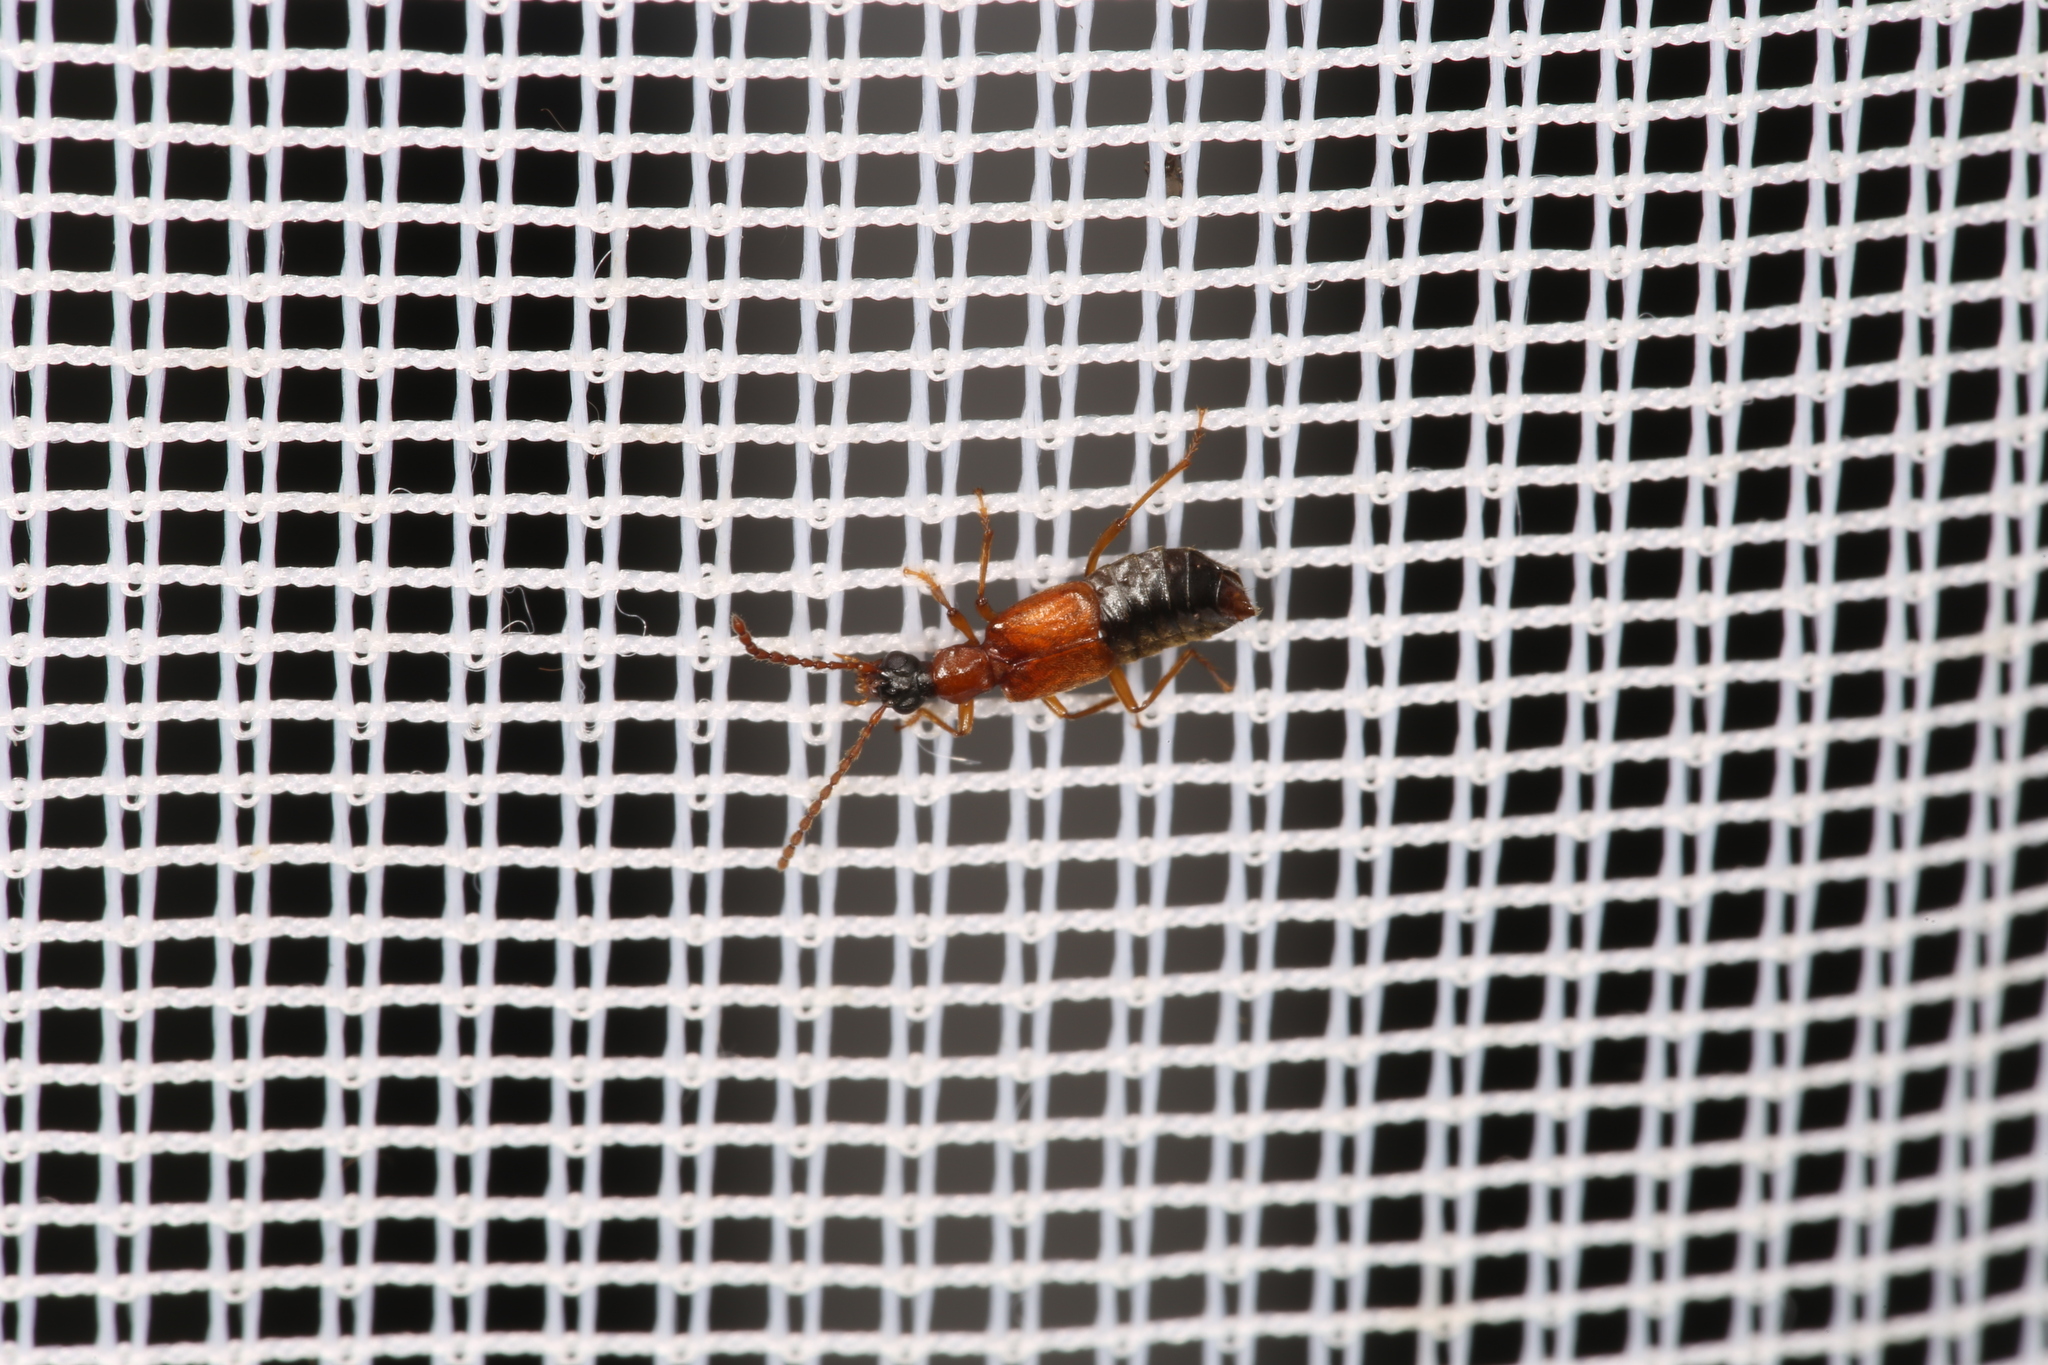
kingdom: Animalia
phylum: Arthropoda
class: Insecta
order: Coleoptera
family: Staphylinidae
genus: Deleaster
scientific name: Deleaster dichrous
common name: Rove beetle
